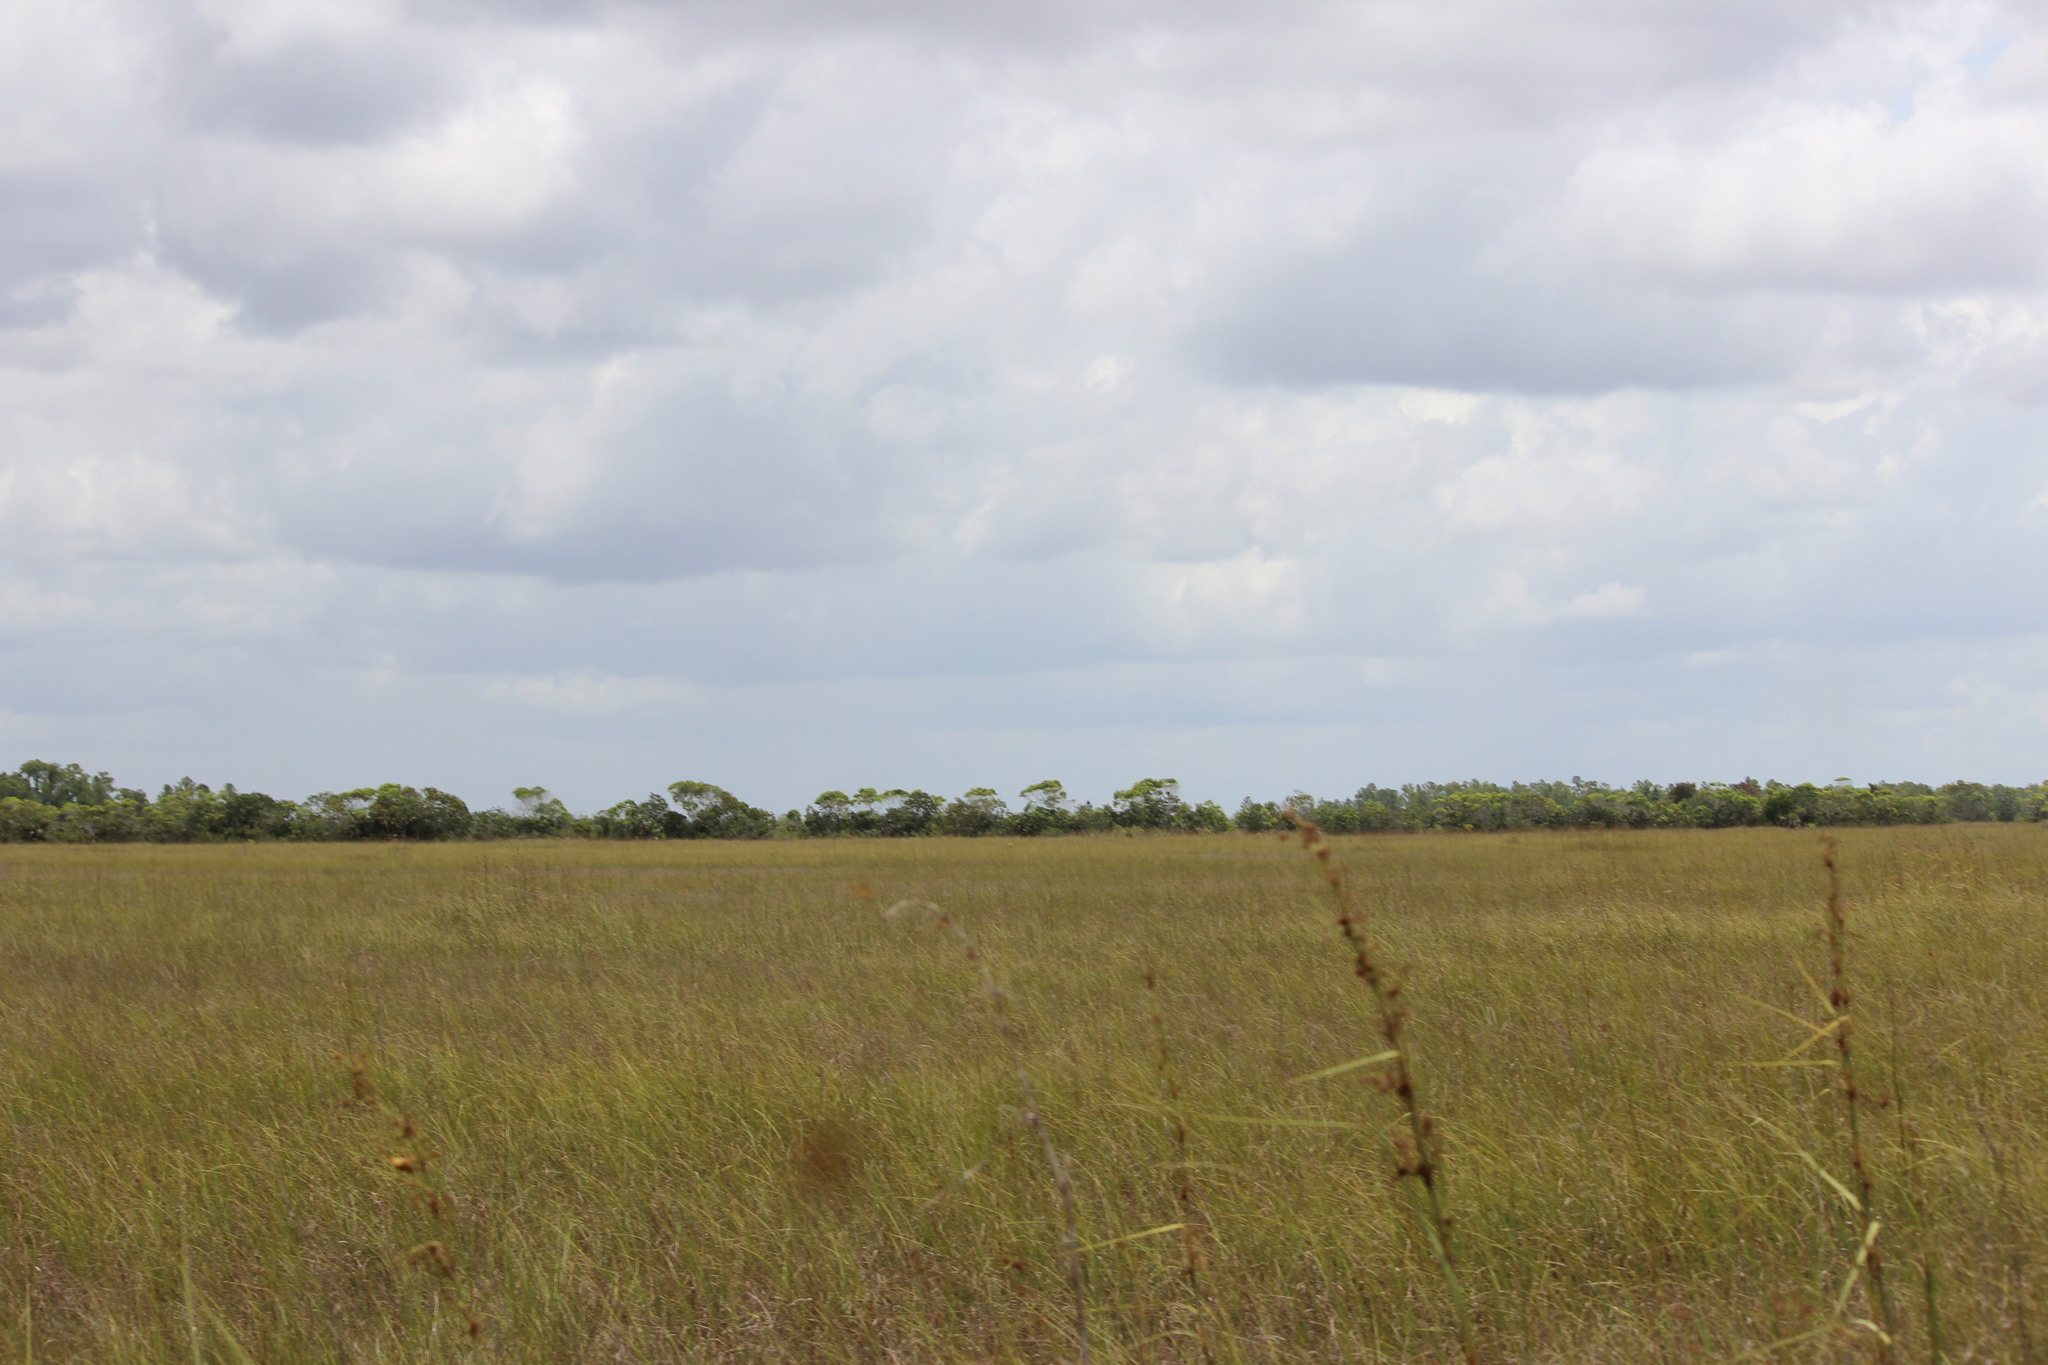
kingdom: Plantae
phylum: Tracheophyta
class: Liliopsida
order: Poales
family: Cyperaceae
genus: Cladium
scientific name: Cladium mariscus
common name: Great fen-sedge
